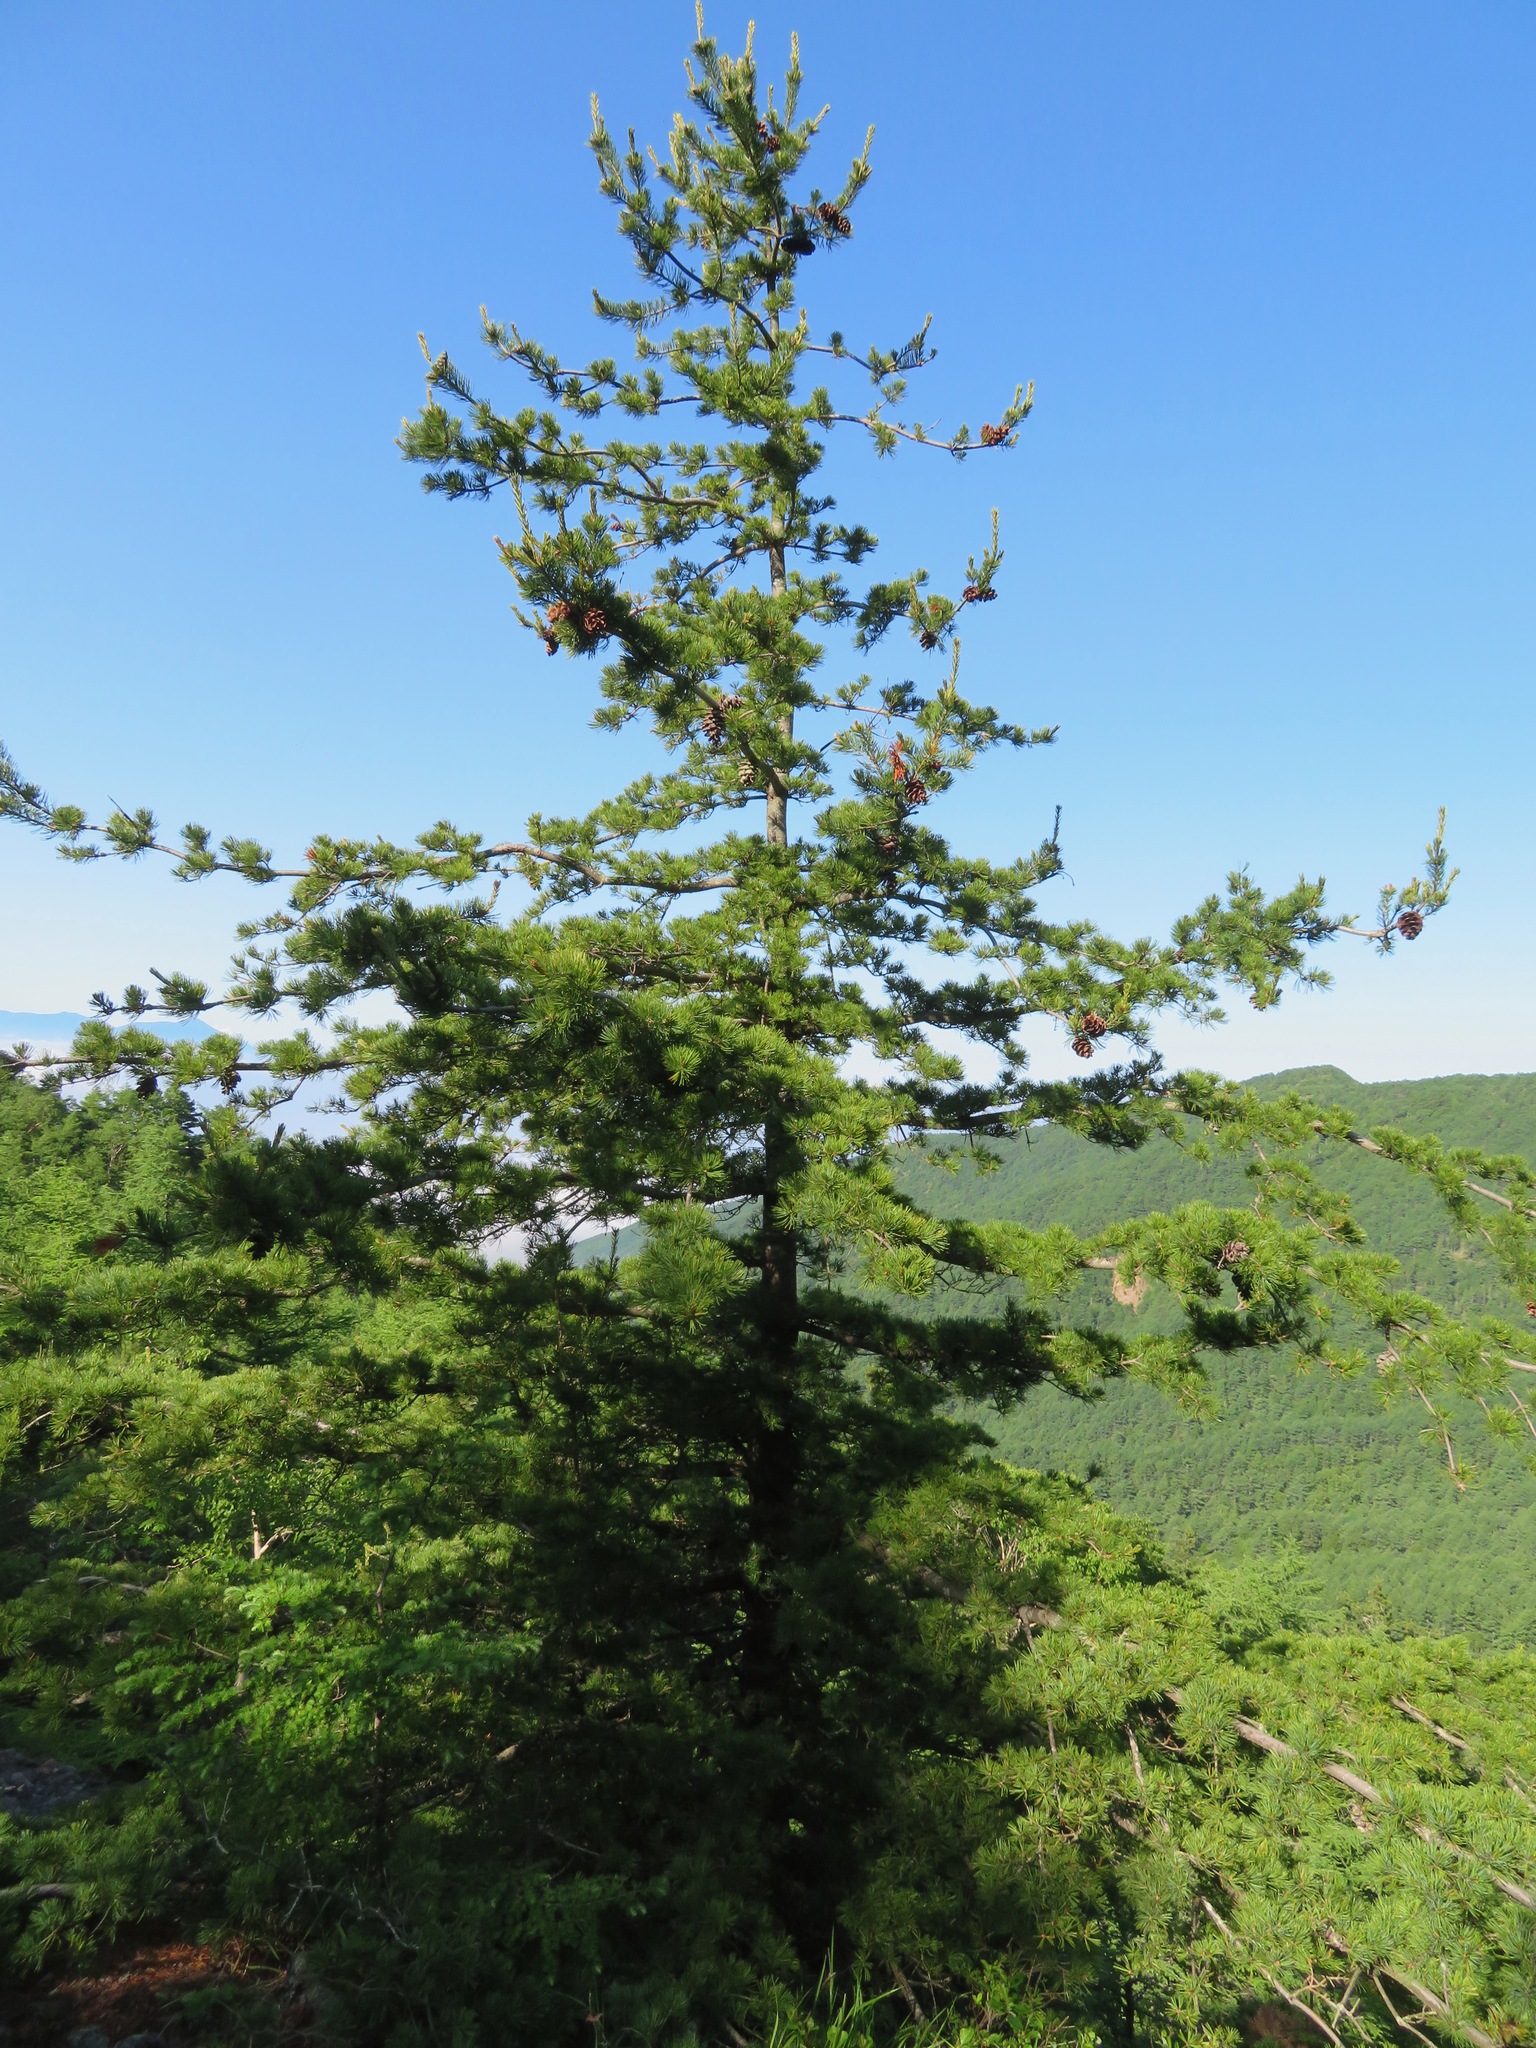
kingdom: Plantae
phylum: Tracheophyta
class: Pinopsida
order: Pinales
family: Pinaceae
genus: Pinus
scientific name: Pinus parviflora
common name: Japanese white pine
